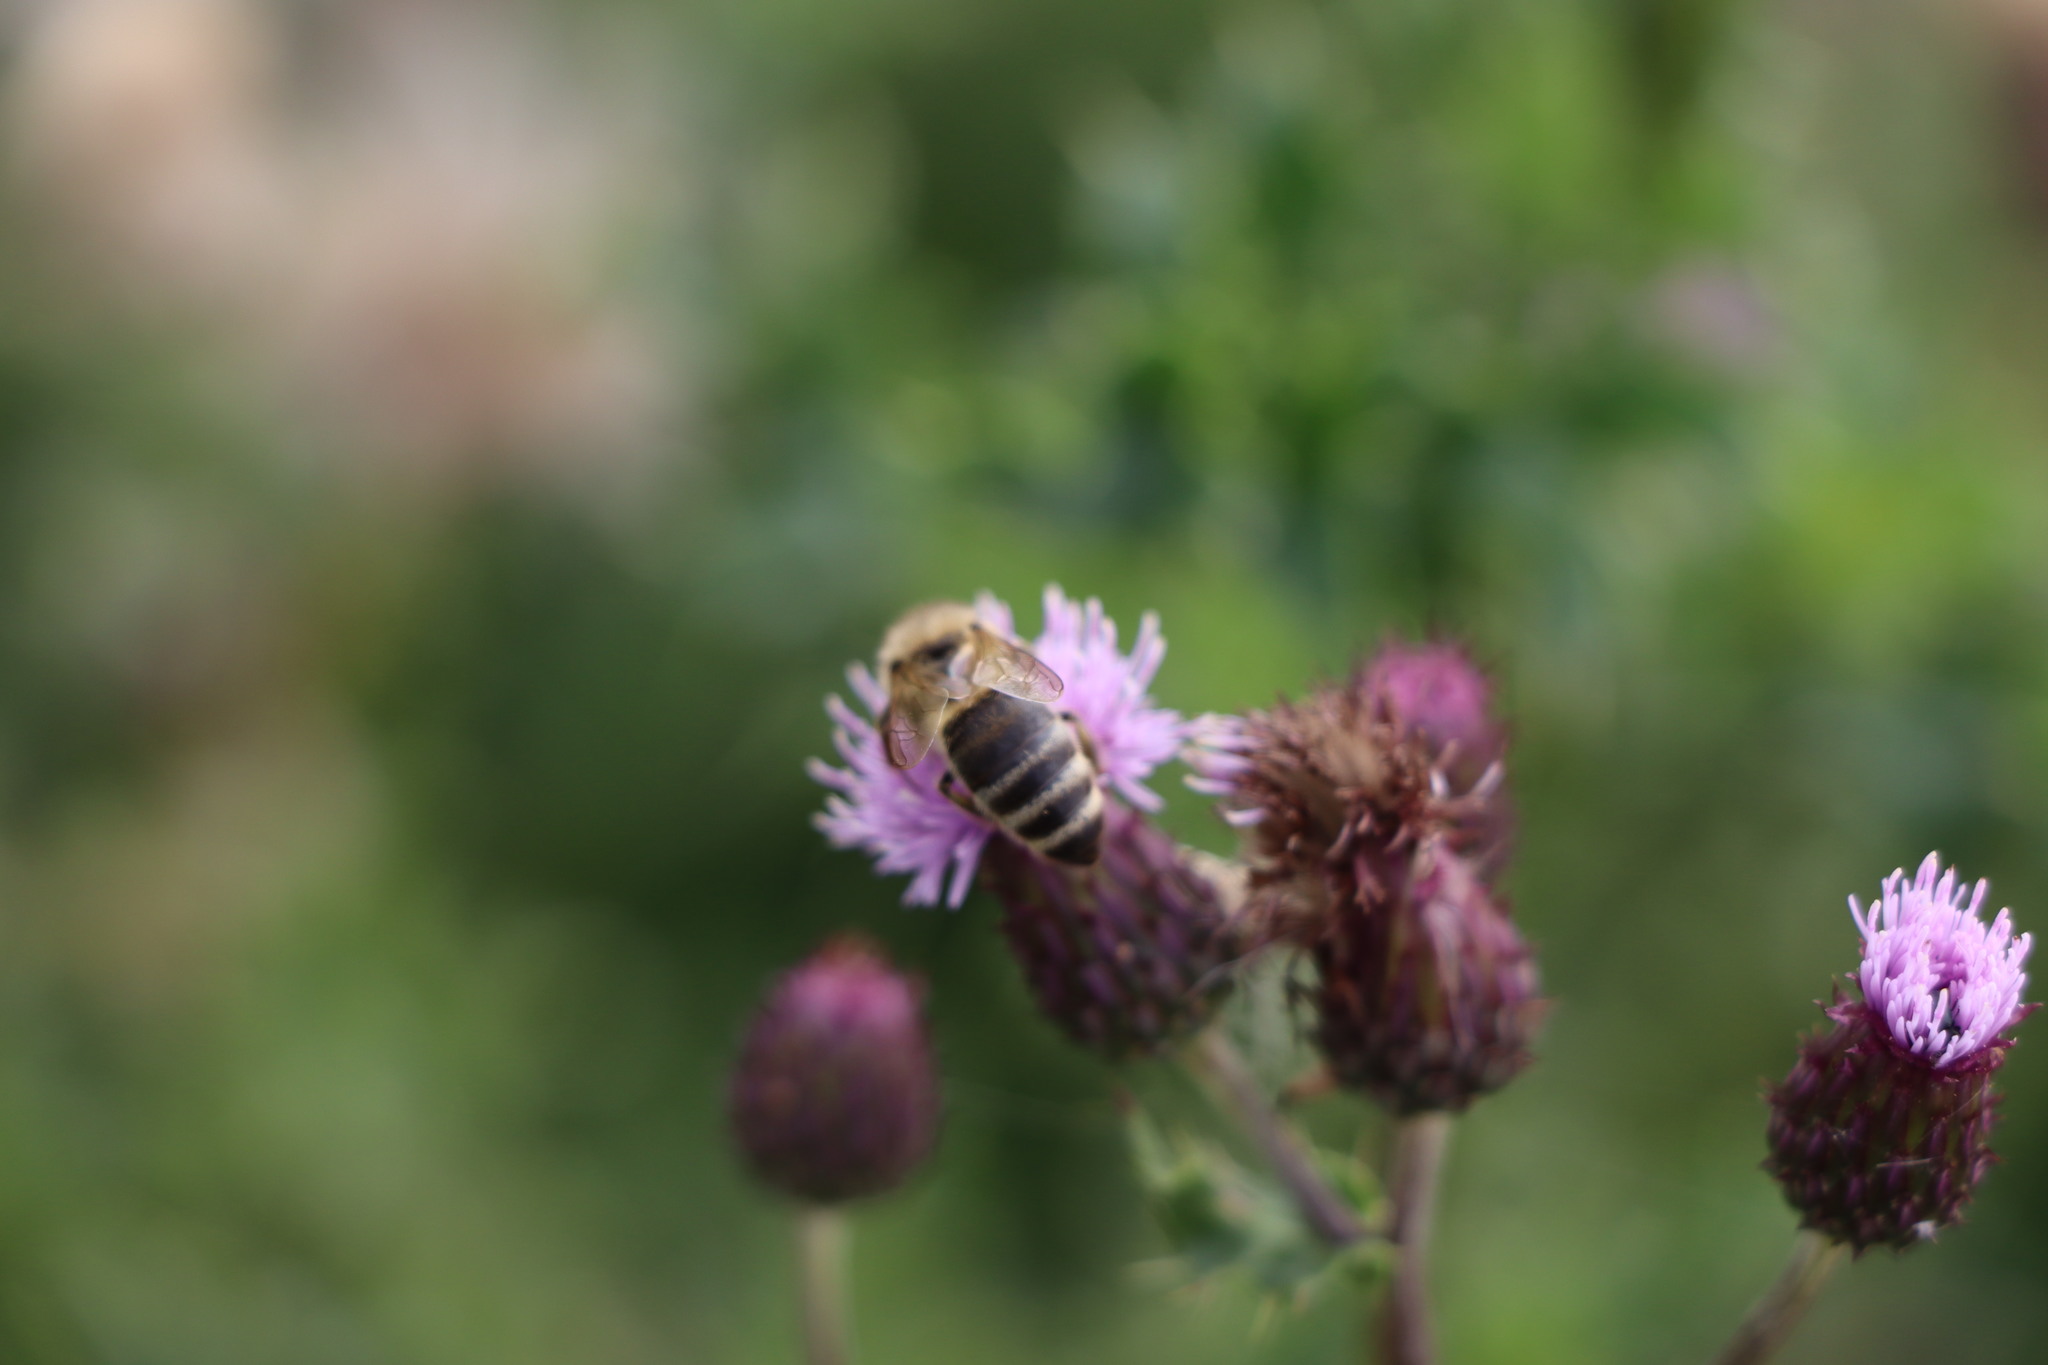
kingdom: Animalia
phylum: Arthropoda
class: Insecta
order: Hymenoptera
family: Apidae
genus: Apis
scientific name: Apis mellifera
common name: Honey bee
